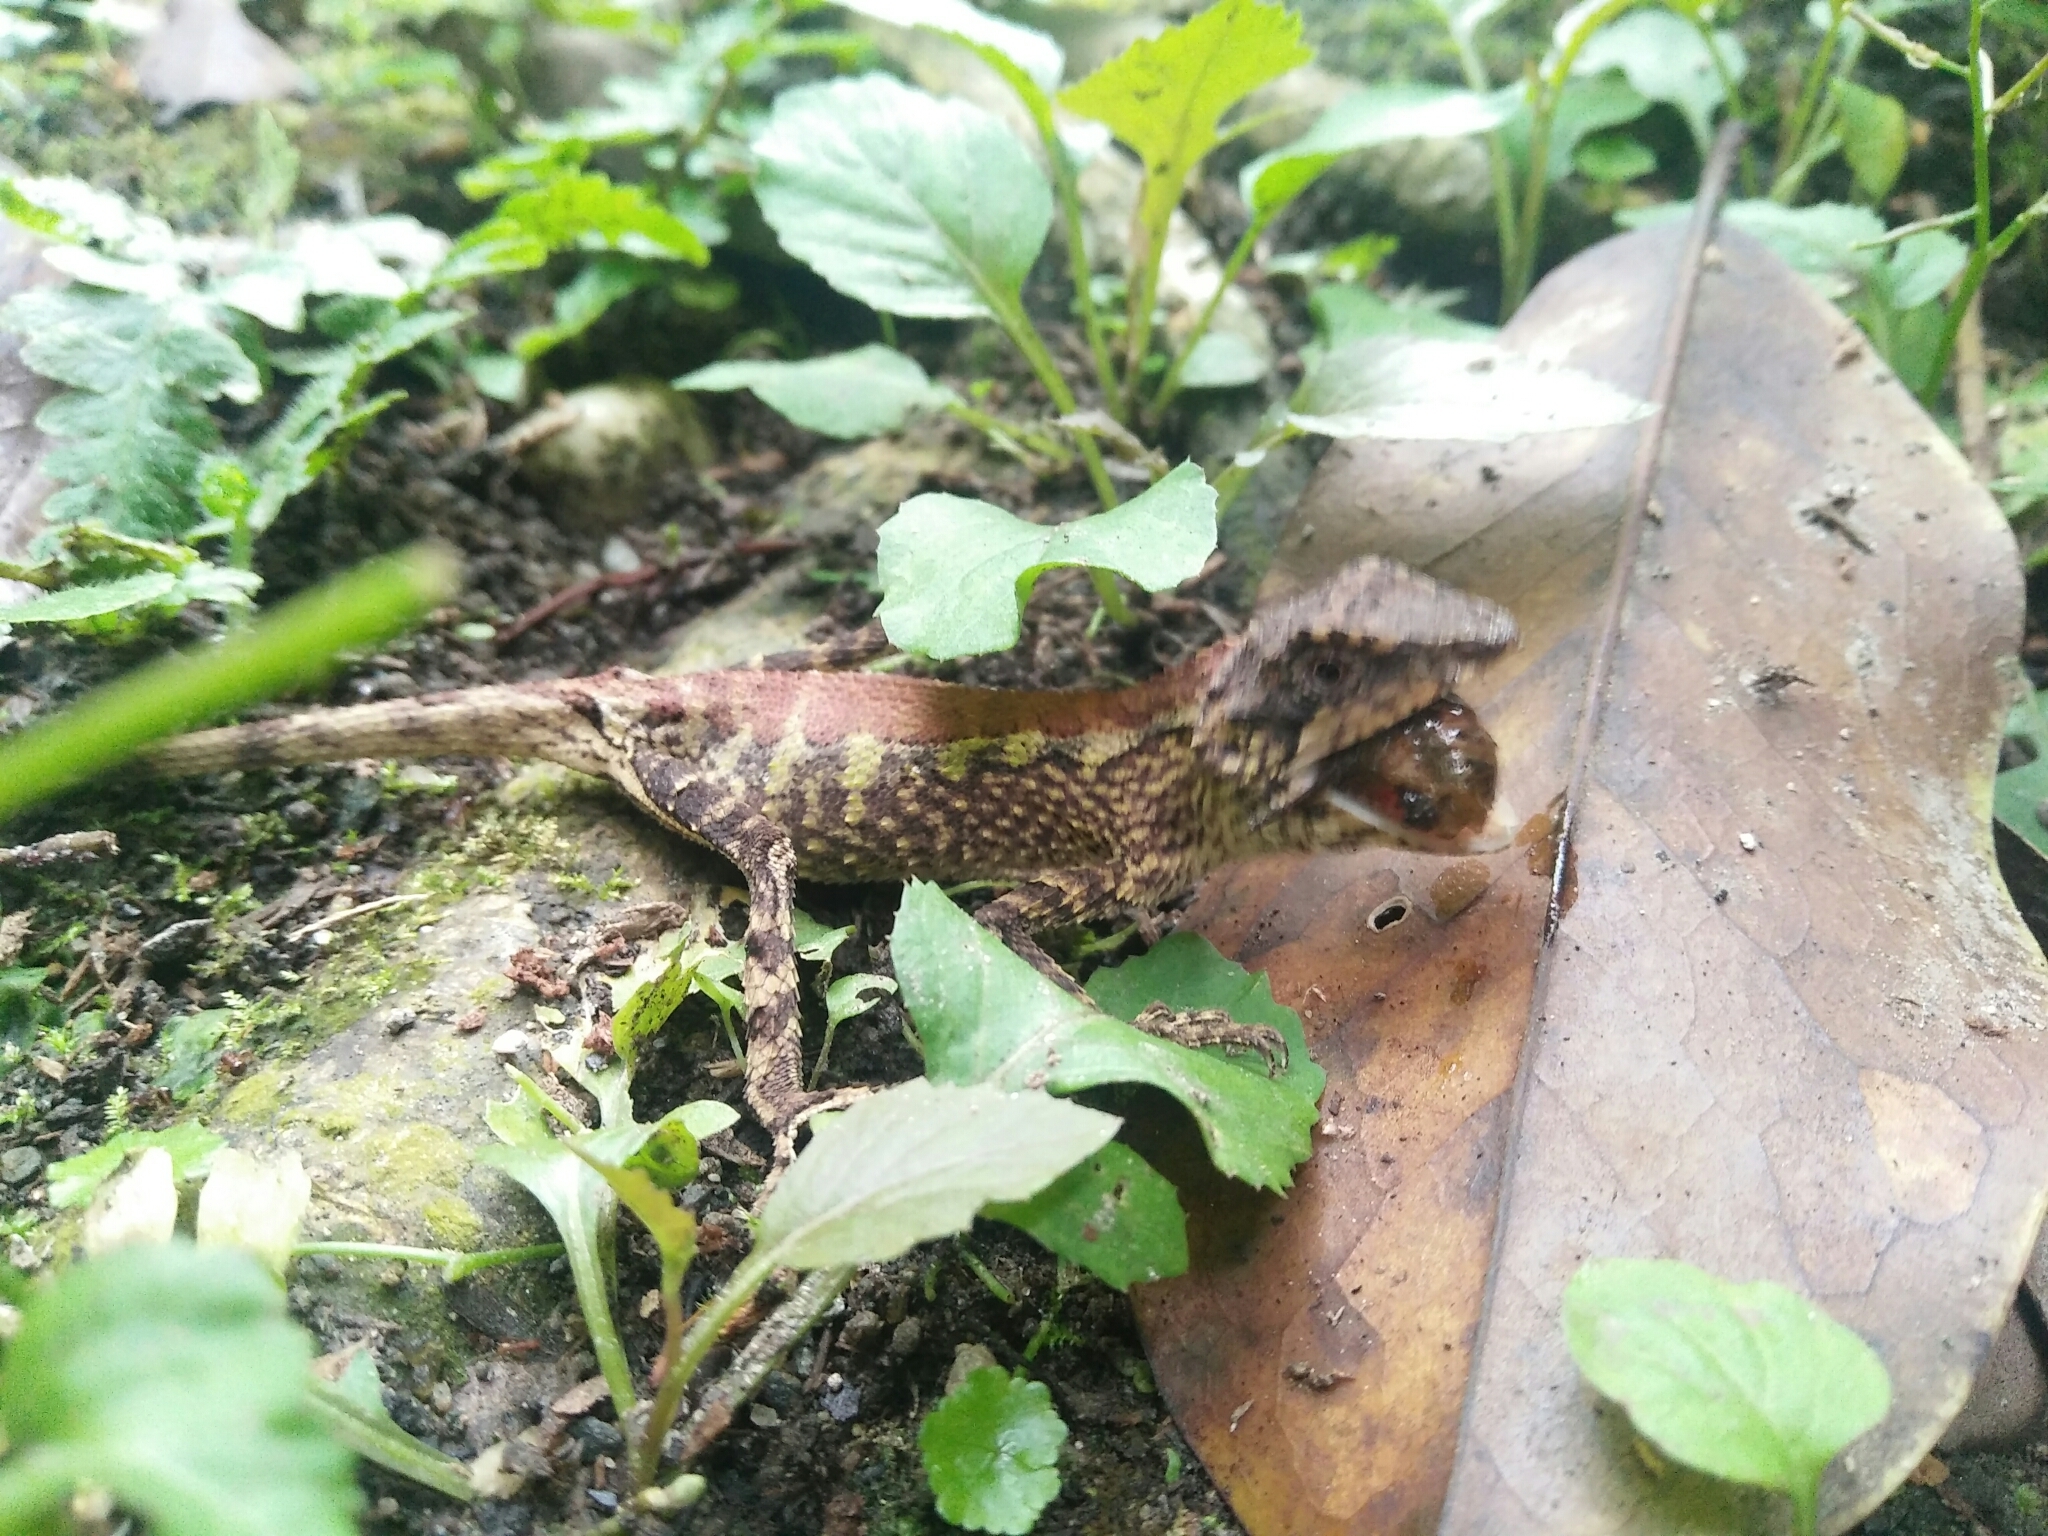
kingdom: Animalia
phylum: Chordata
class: Squamata
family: Agamidae
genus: Diploderma
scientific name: Diploderma swinhonis
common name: Taiwan japalure
